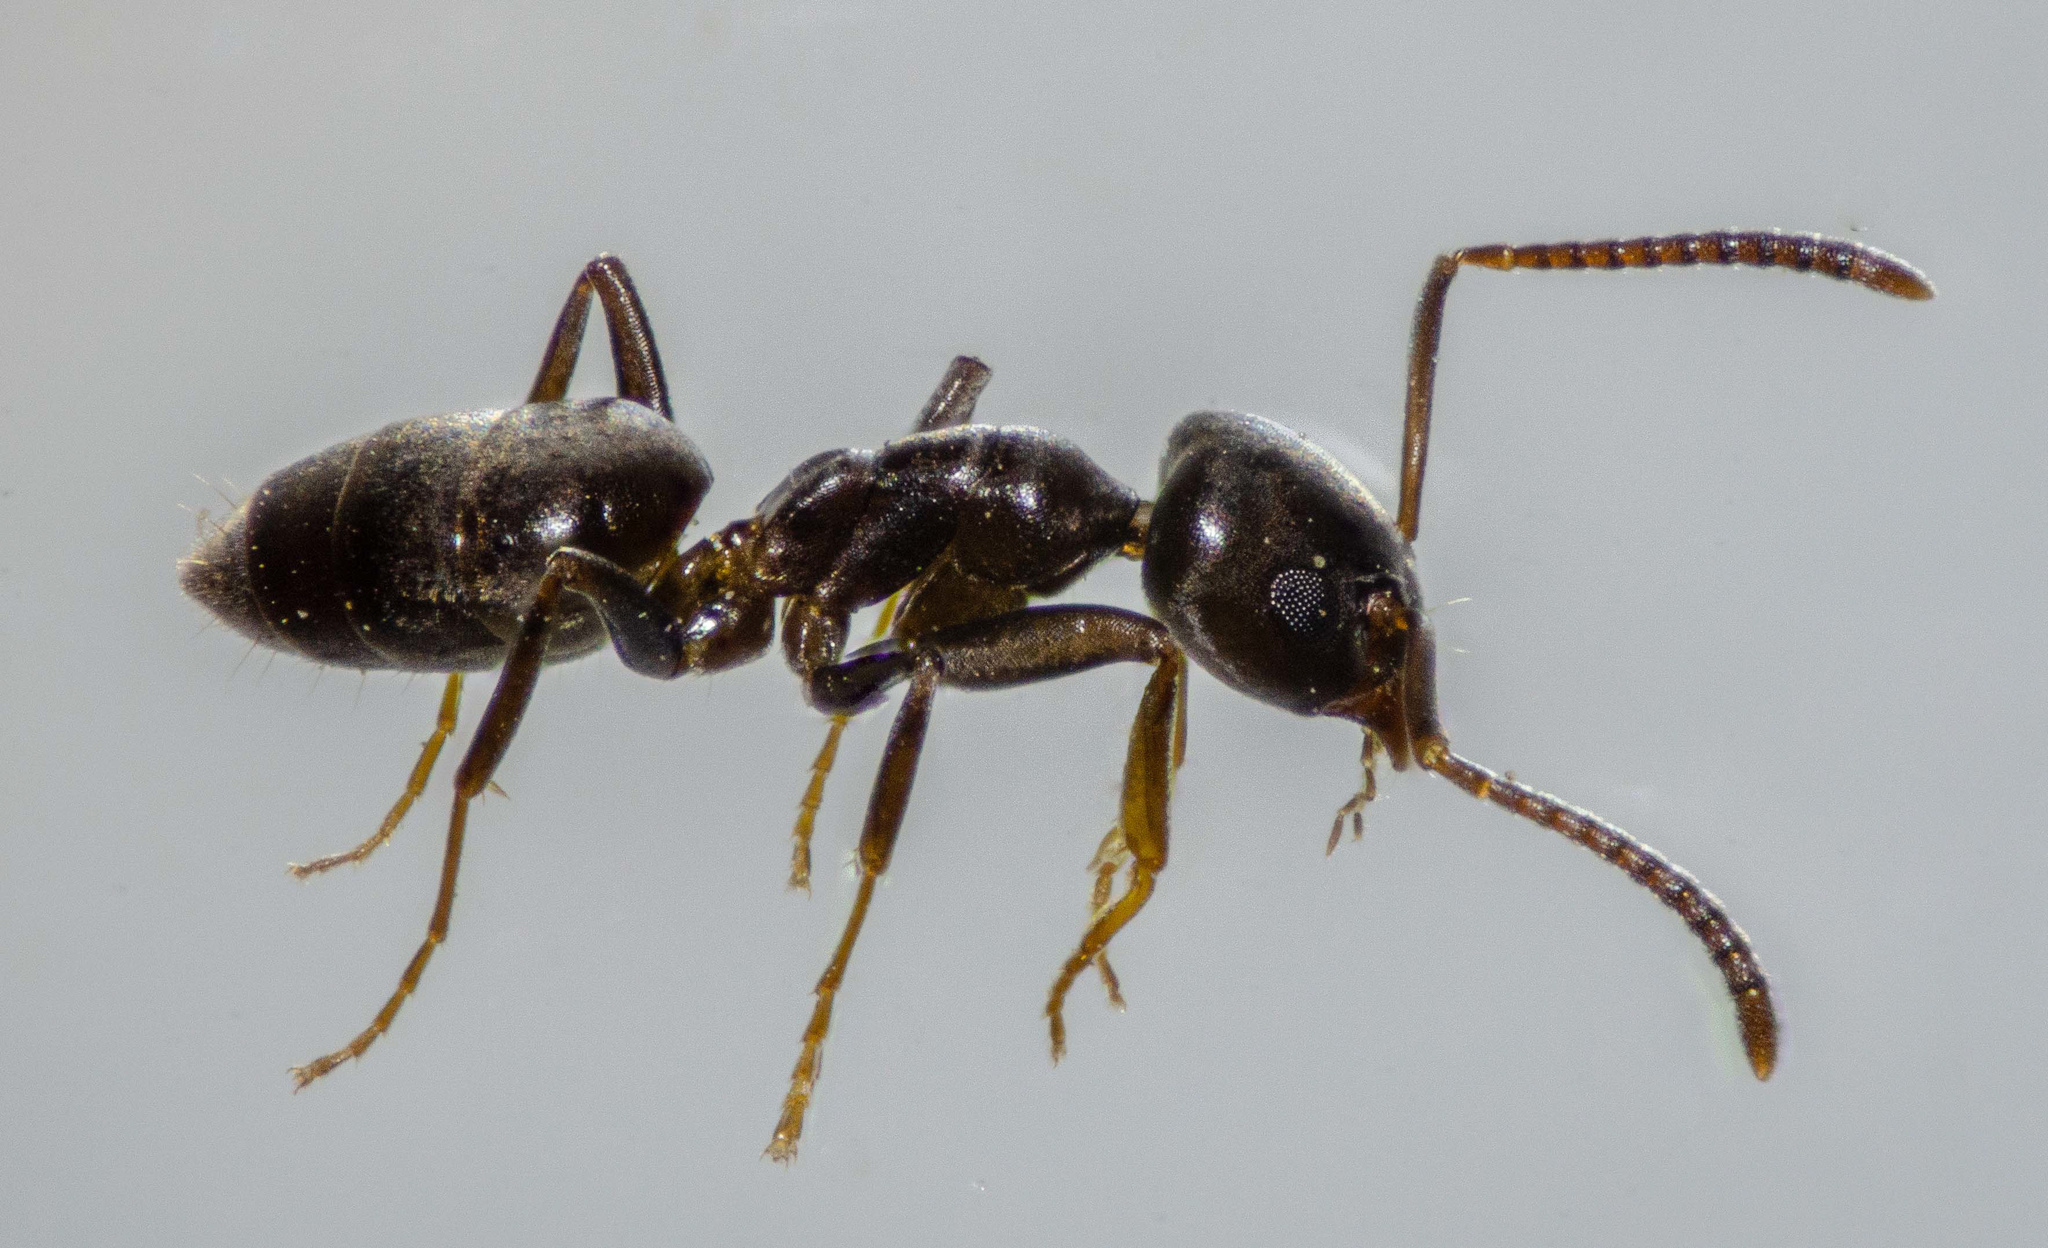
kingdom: Animalia
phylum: Arthropoda
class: Insecta
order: Hymenoptera
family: Formicidae
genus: Tapinoma
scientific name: Tapinoma sessile
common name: Odorous house ant
